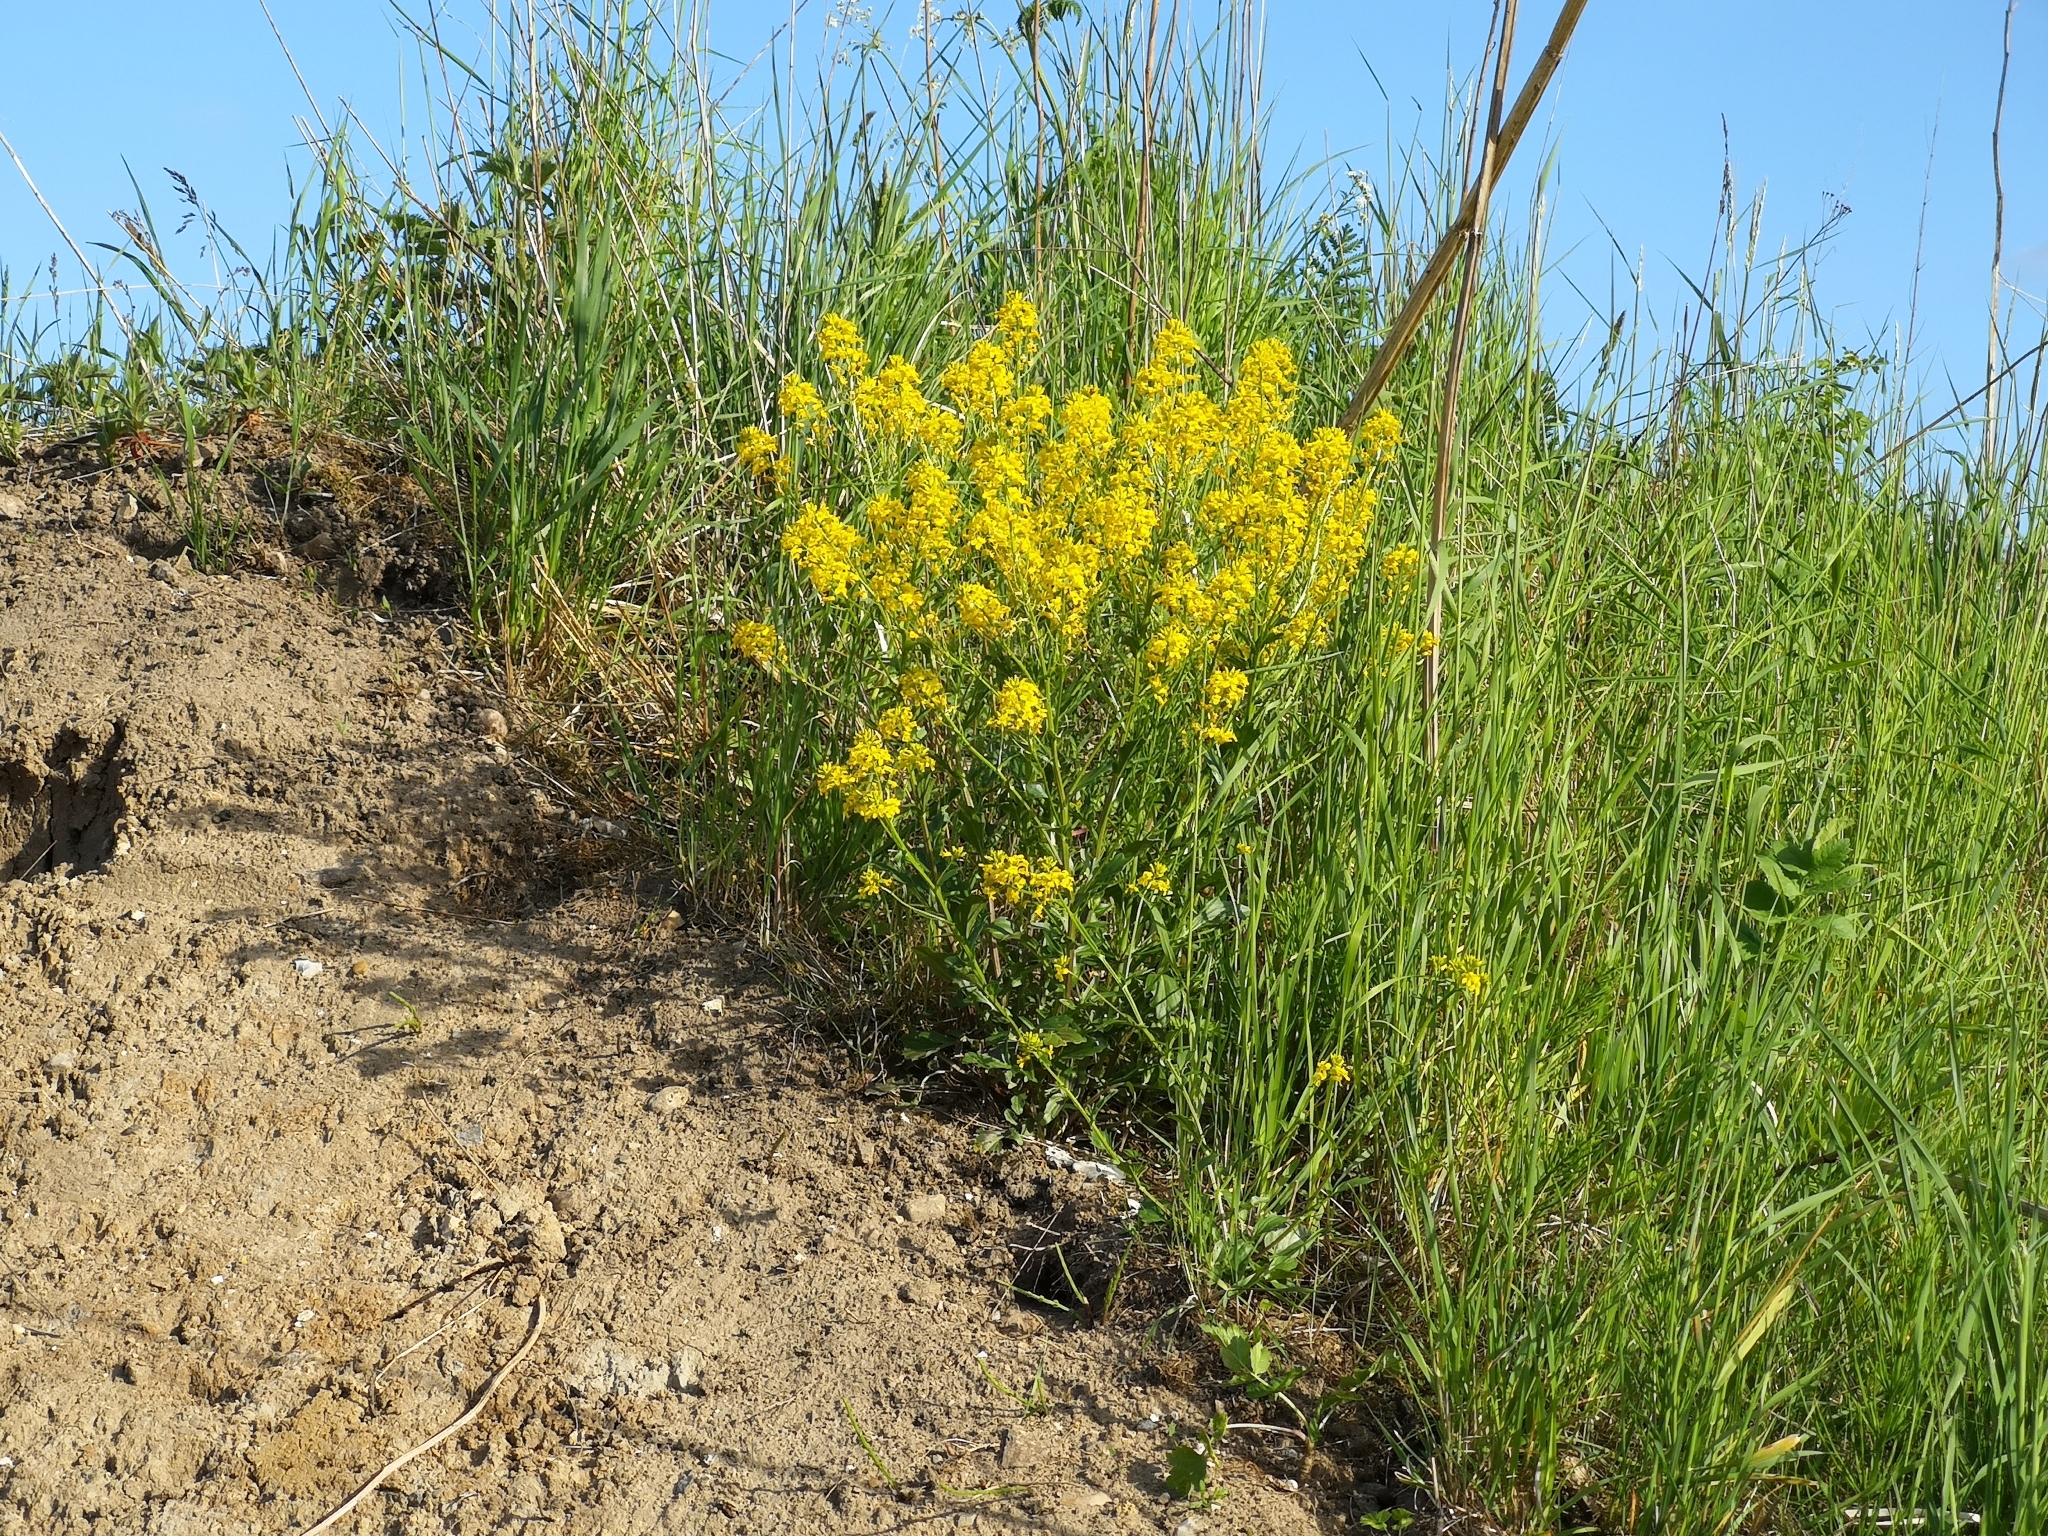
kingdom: Plantae
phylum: Tracheophyta
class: Magnoliopsida
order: Brassicales
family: Brassicaceae
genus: Barbarea
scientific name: Barbarea vulgaris
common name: Cressy-greens
